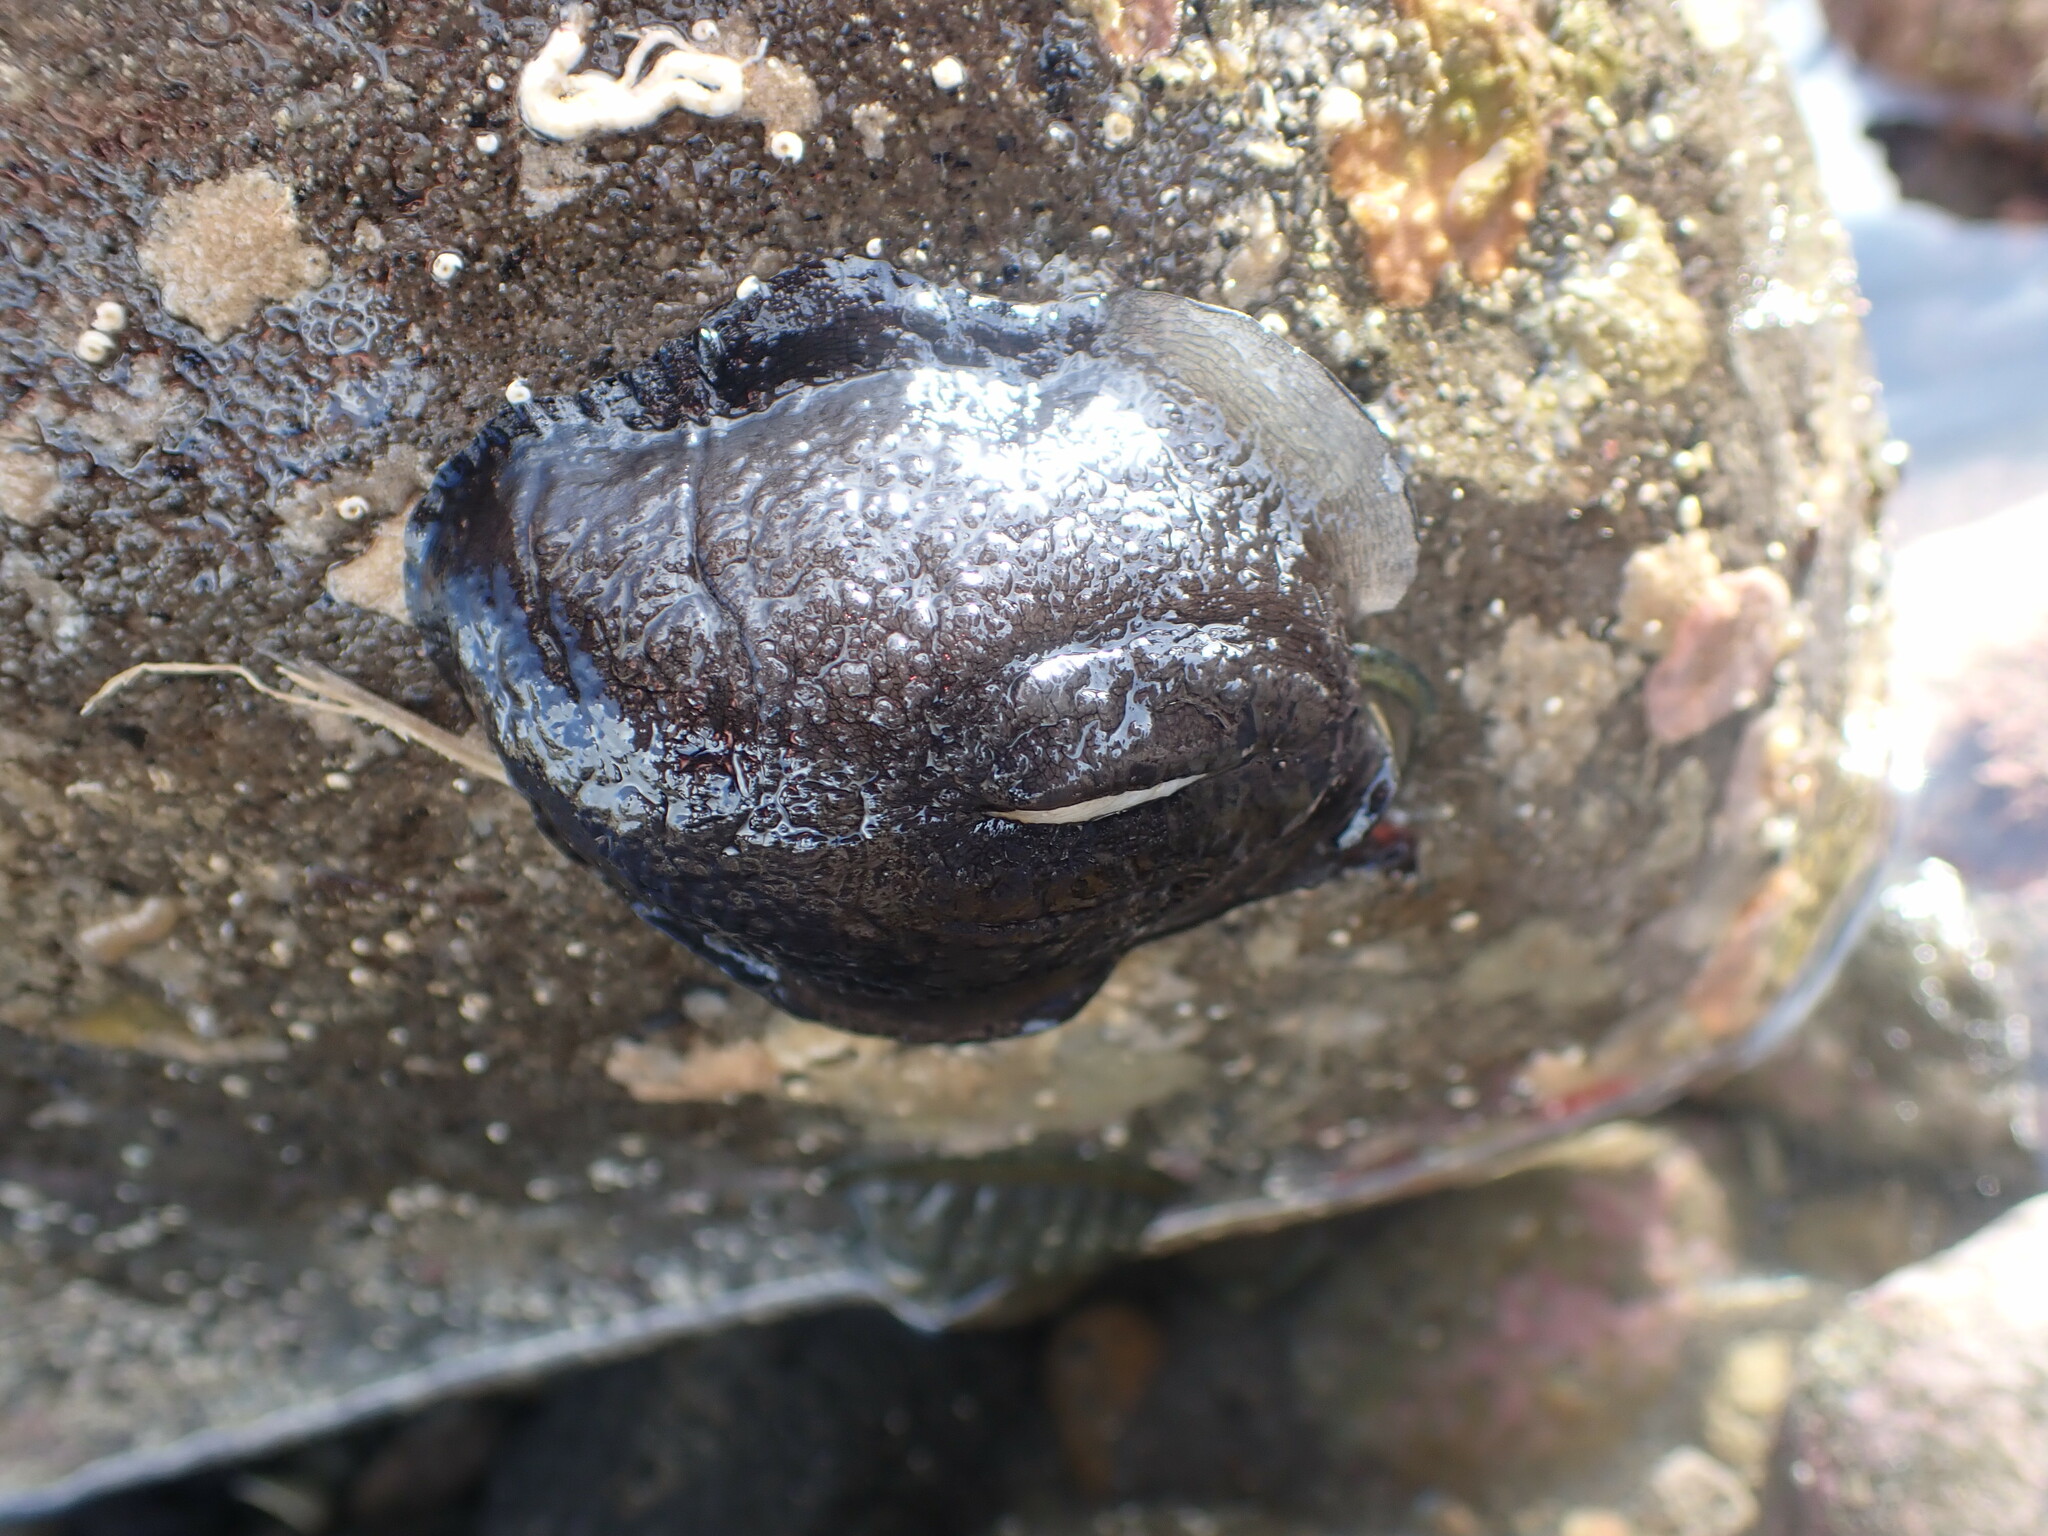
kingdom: Animalia
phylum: Mollusca
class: Gastropoda
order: Lepetellida
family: Fissurellidae
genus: Scutus
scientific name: Scutus breviculus
